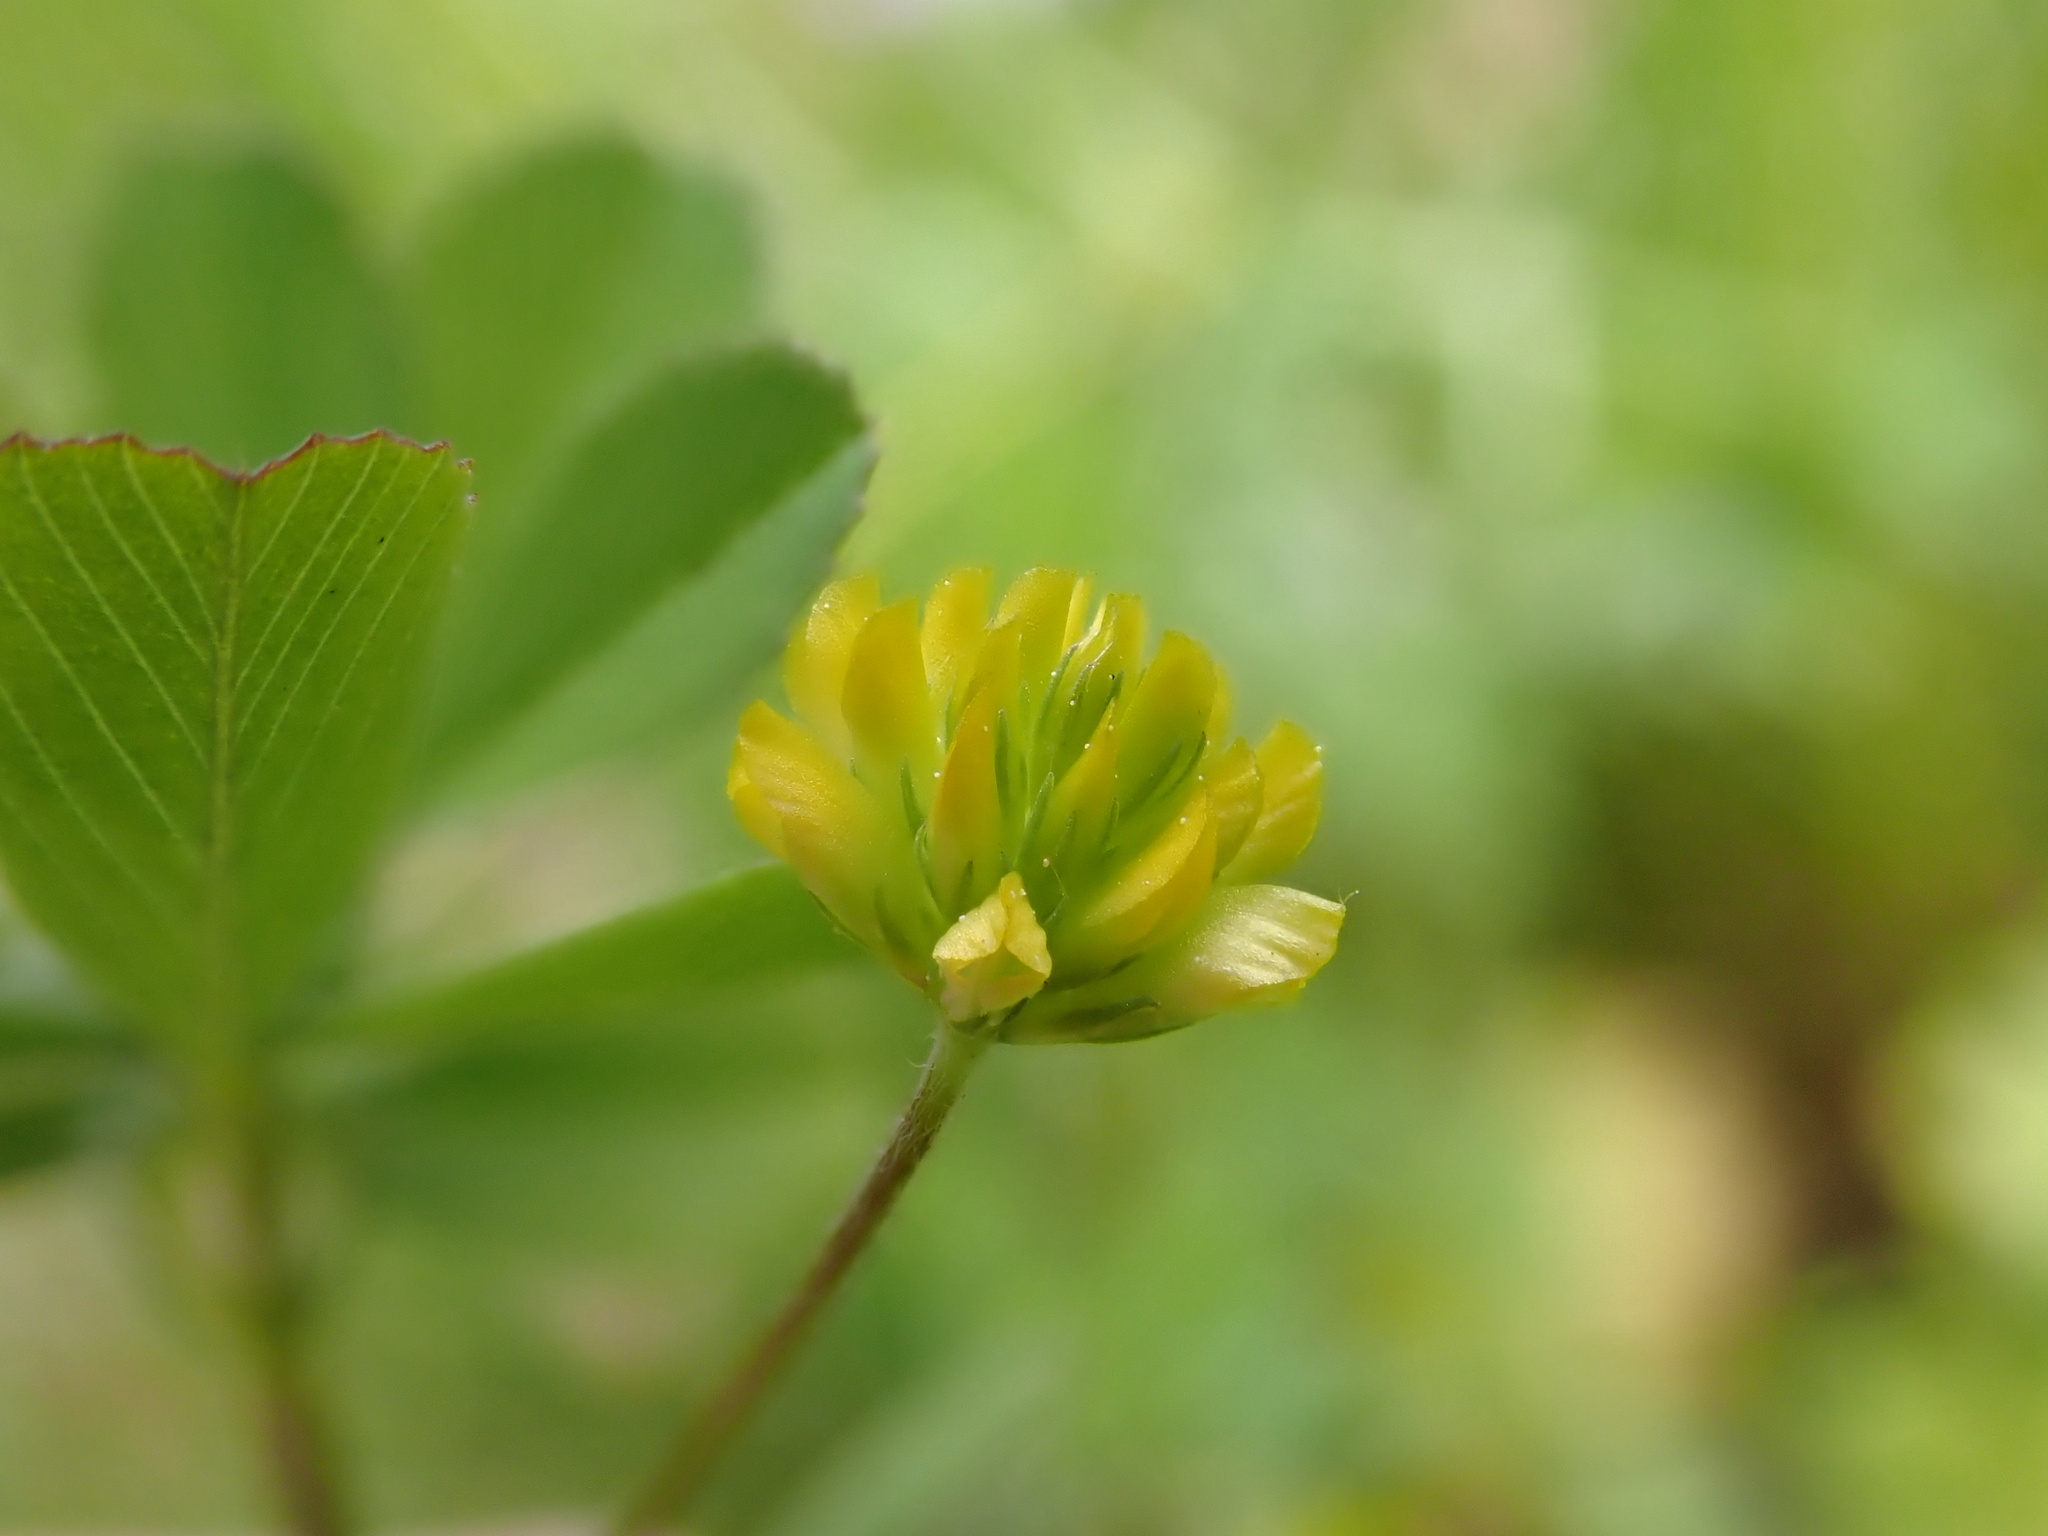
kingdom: Plantae
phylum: Tracheophyta
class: Magnoliopsida
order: Fabales
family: Fabaceae
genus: Trifolium
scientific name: Trifolium dubium
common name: Suckling clover
